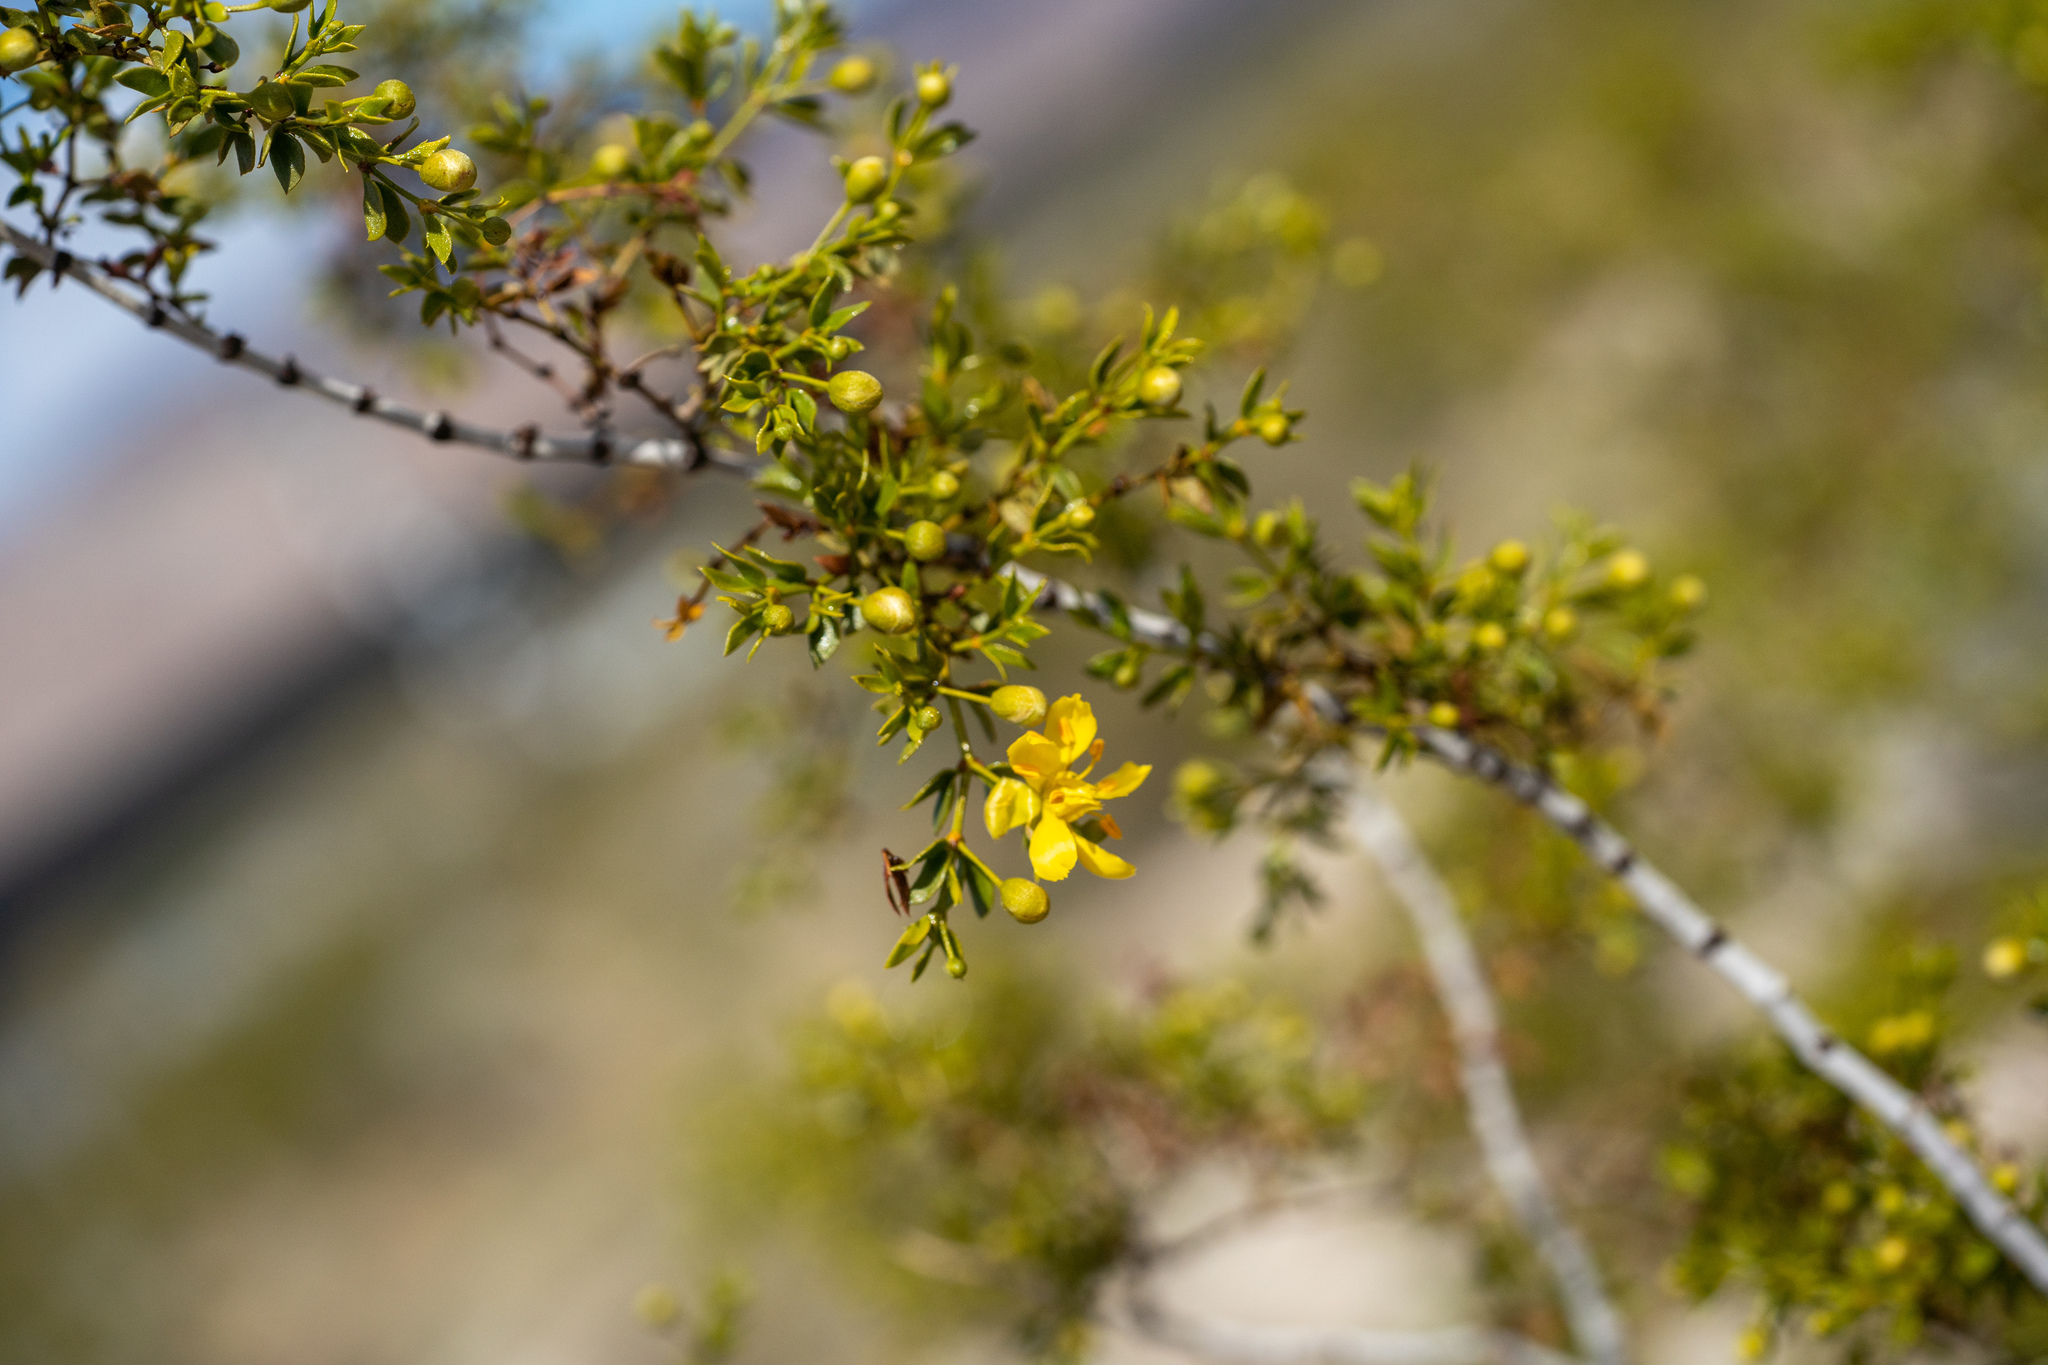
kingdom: Plantae
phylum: Tracheophyta
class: Magnoliopsida
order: Zygophyllales
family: Zygophyllaceae
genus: Larrea
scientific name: Larrea tridentata
